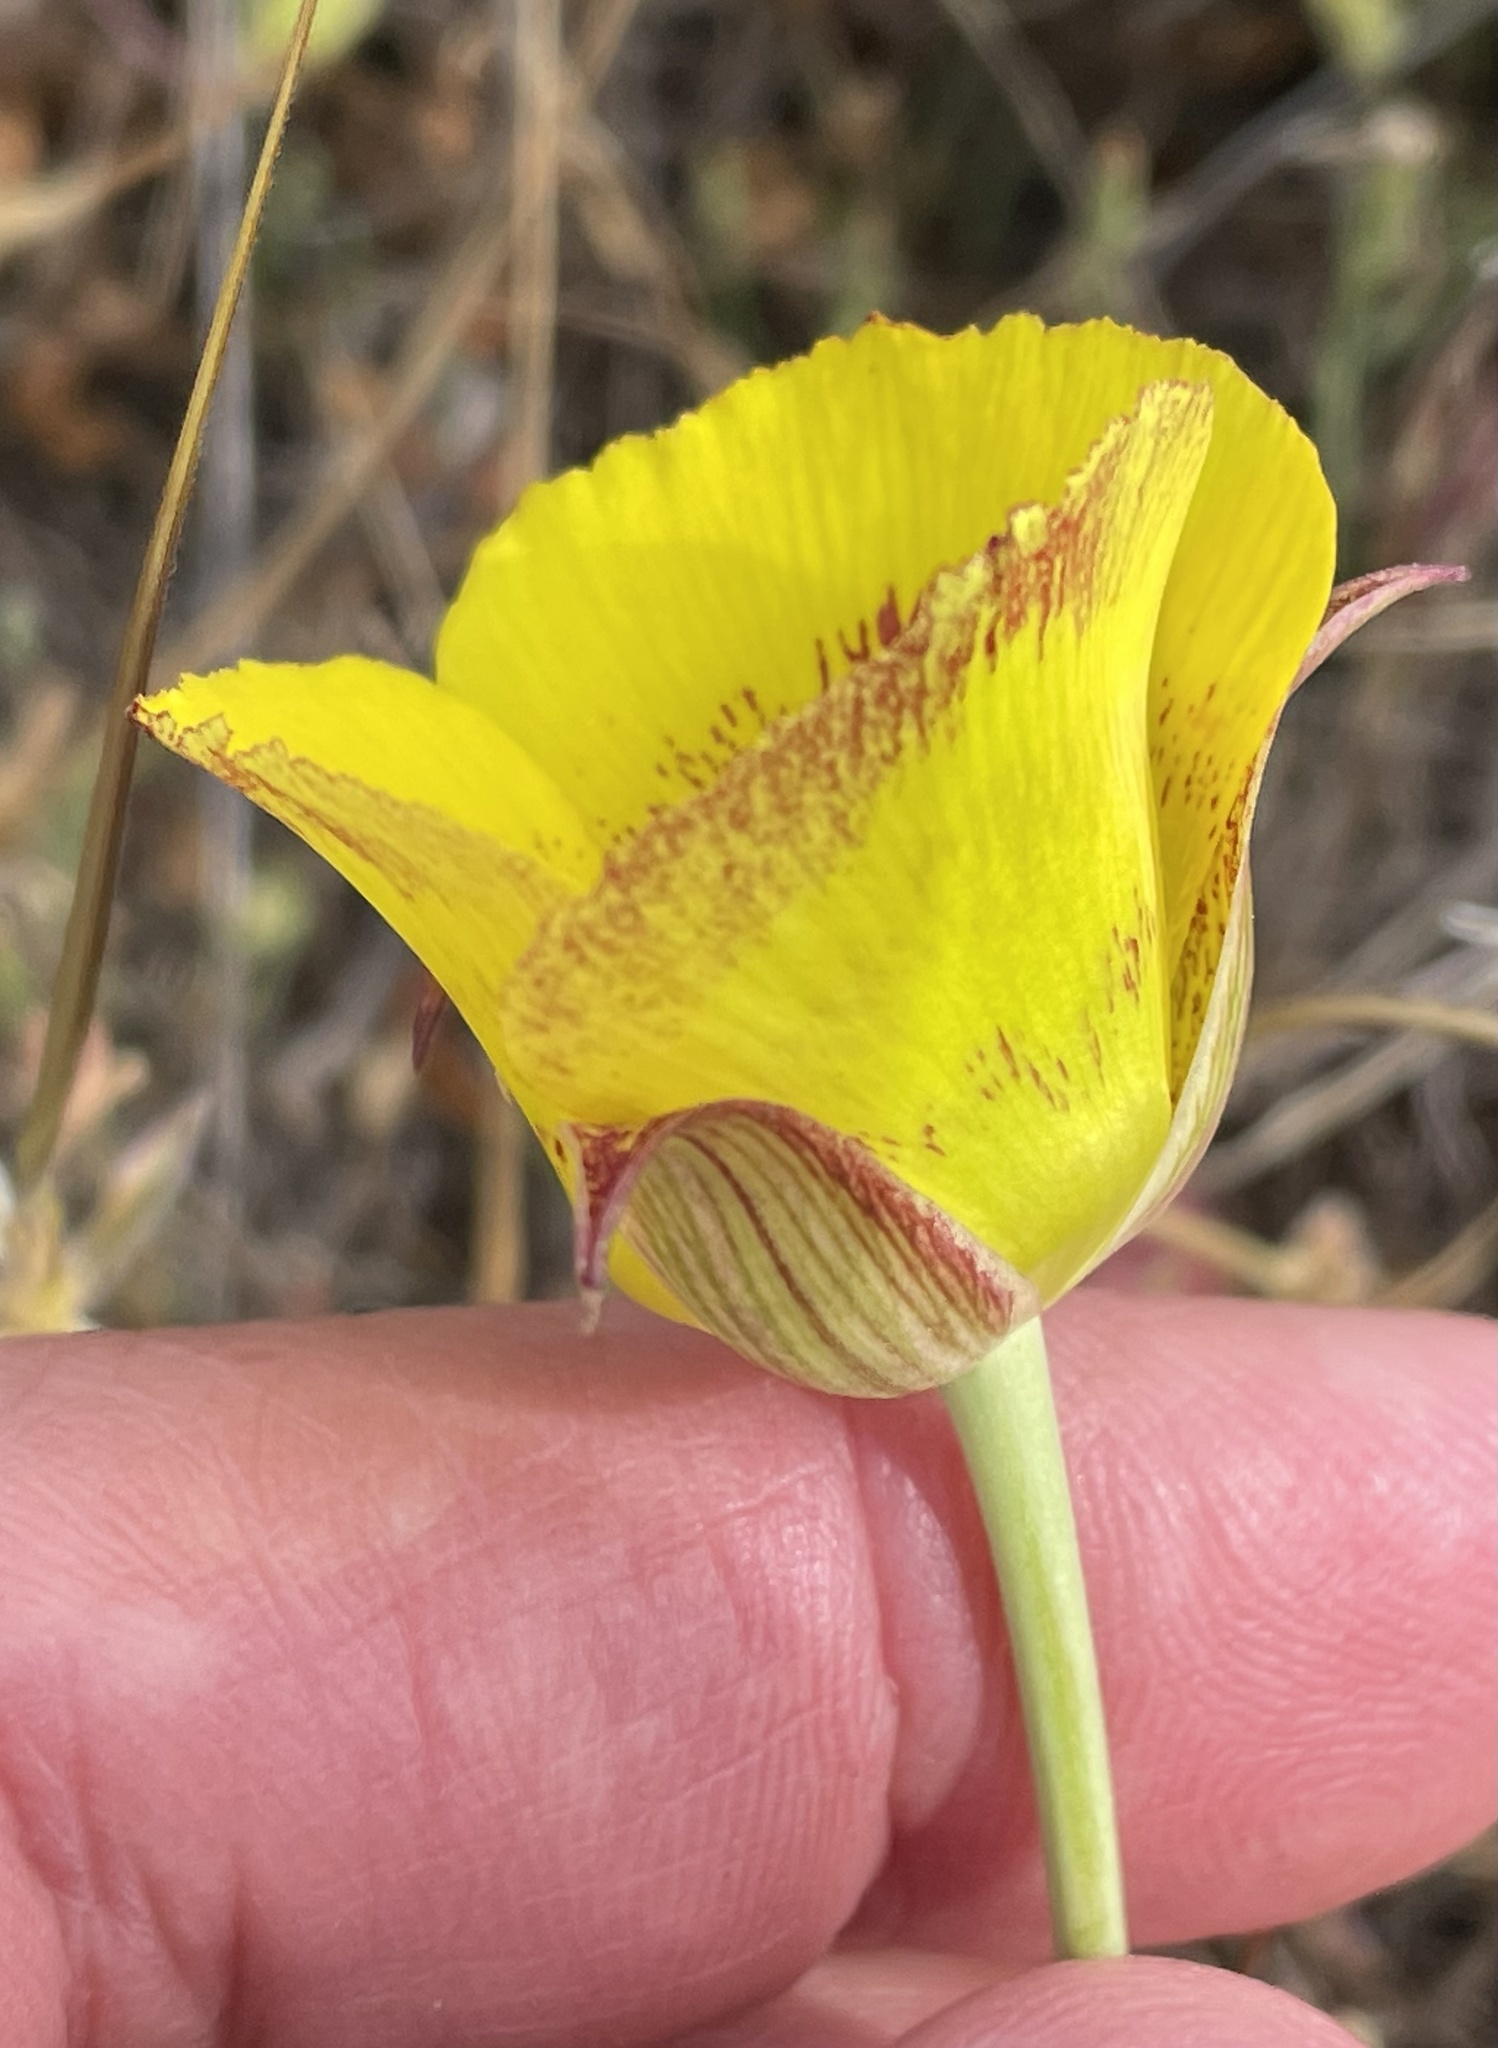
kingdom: Plantae
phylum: Tracheophyta
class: Liliopsida
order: Liliales
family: Liliaceae
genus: Calochortus
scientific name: Calochortus luteus
